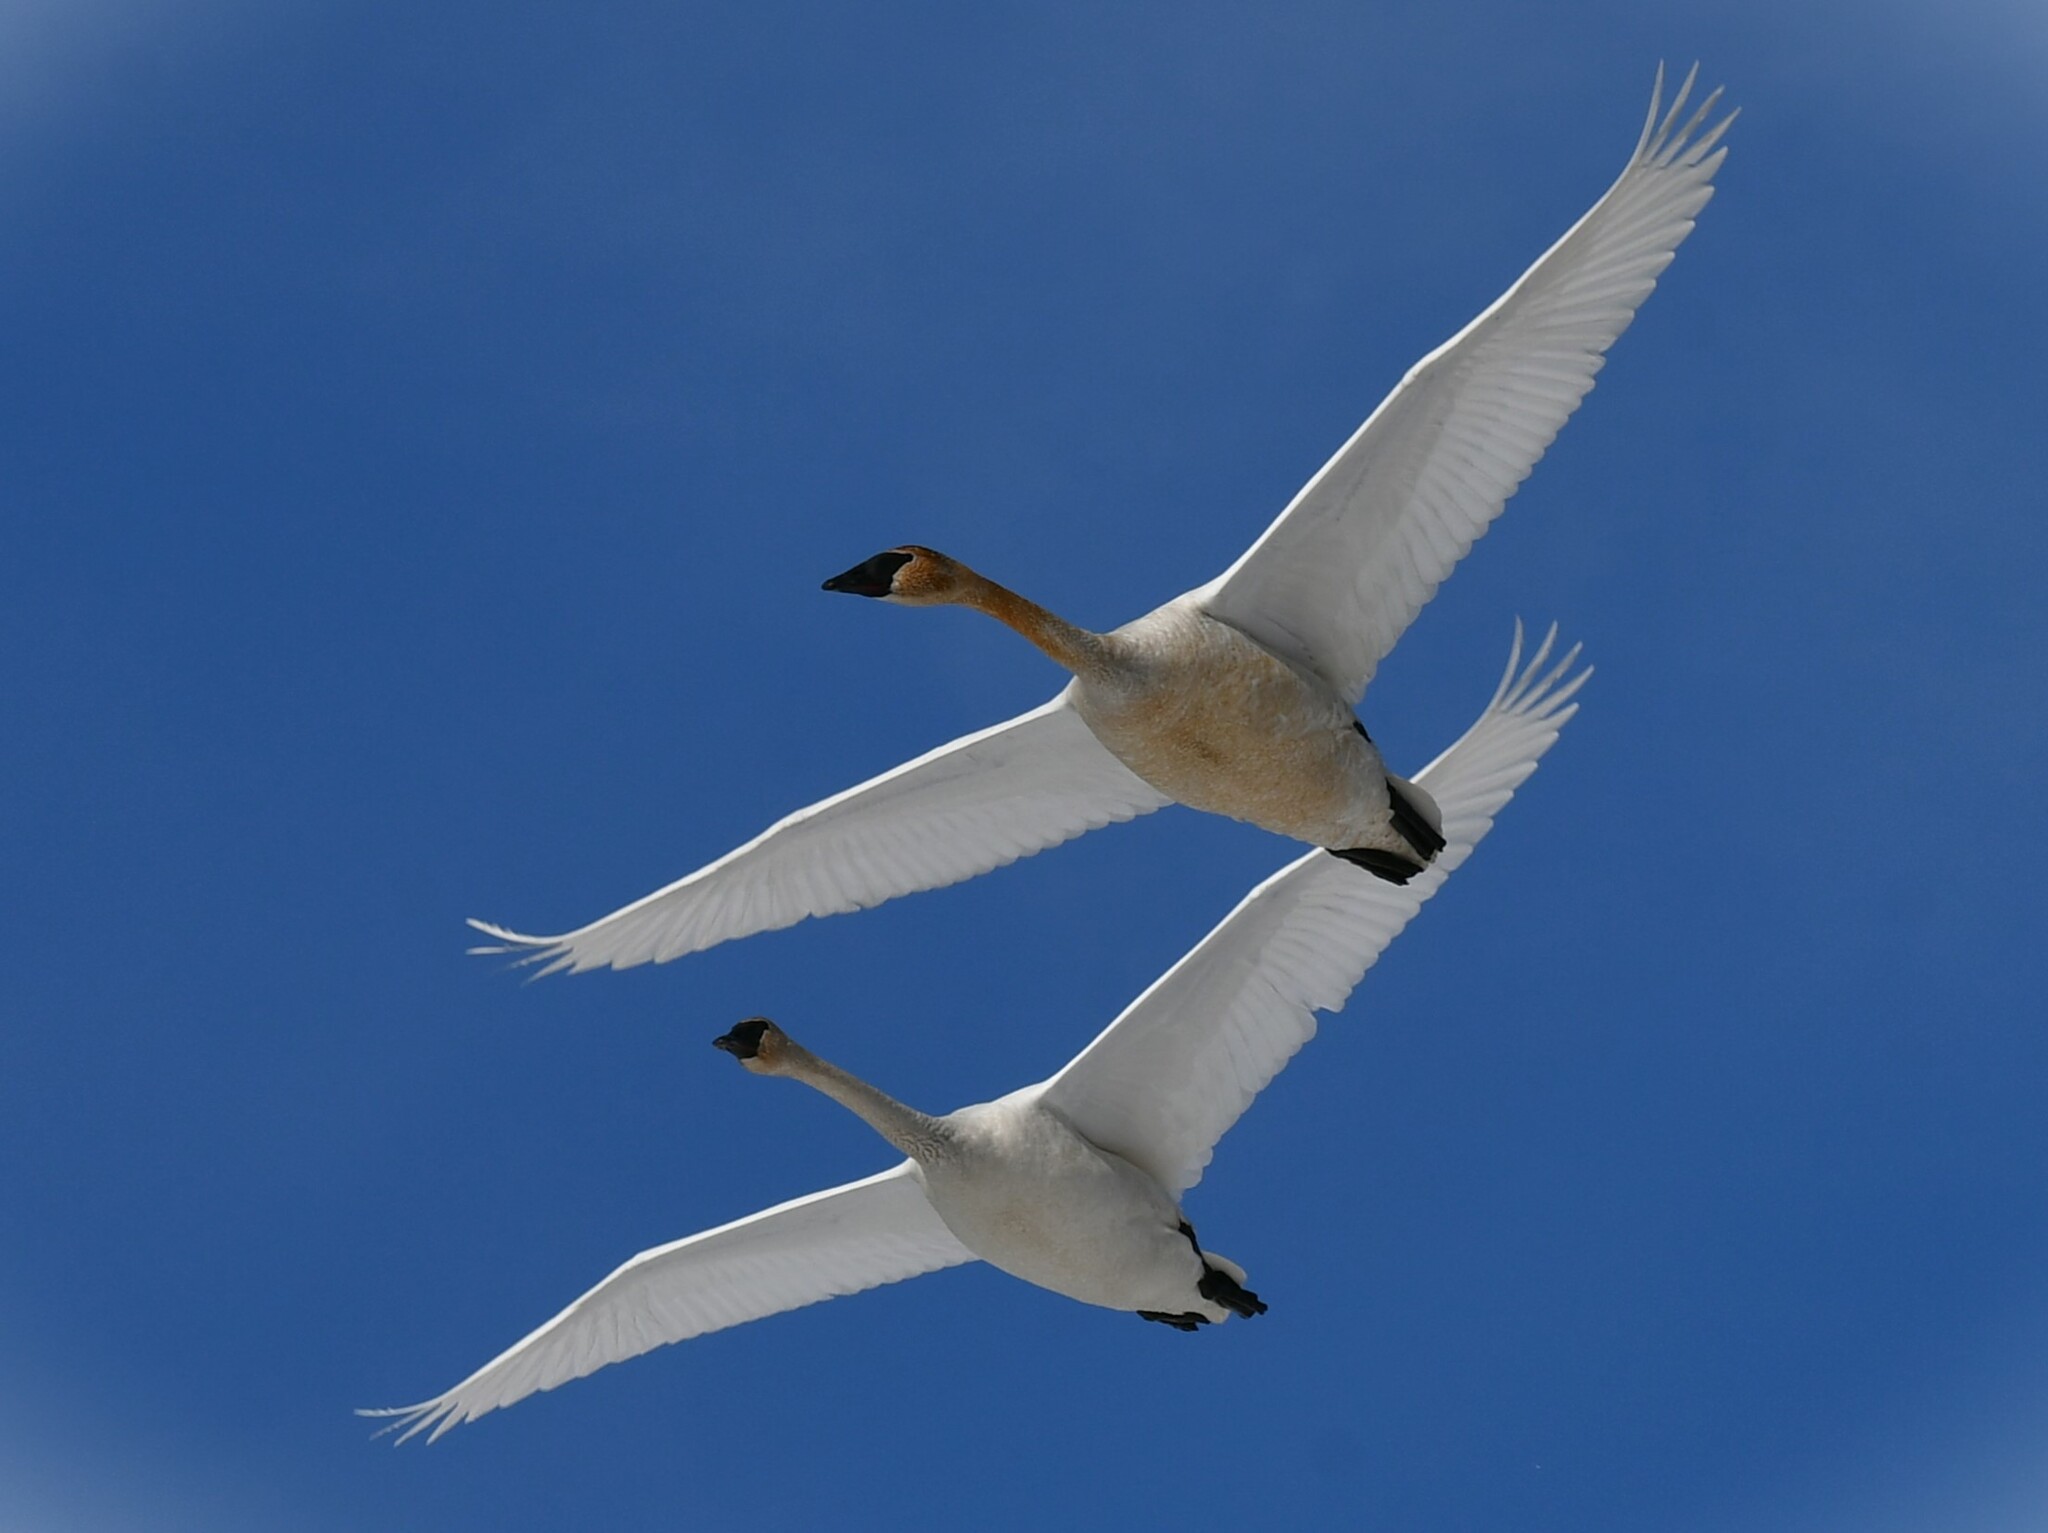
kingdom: Animalia
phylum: Chordata
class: Aves
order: Anseriformes
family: Anatidae
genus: Cygnus
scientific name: Cygnus buccinator
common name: Trumpeter swan
